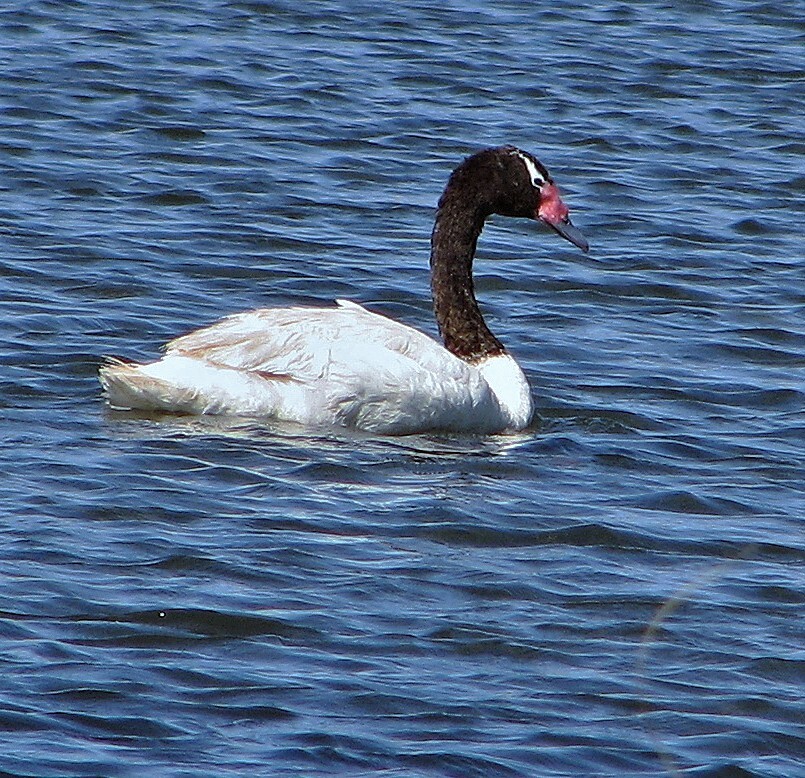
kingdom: Animalia
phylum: Chordata
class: Aves
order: Anseriformes
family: Anatidae
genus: Cygnus
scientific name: Cygnus melancoryphus
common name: Black-necked swan
